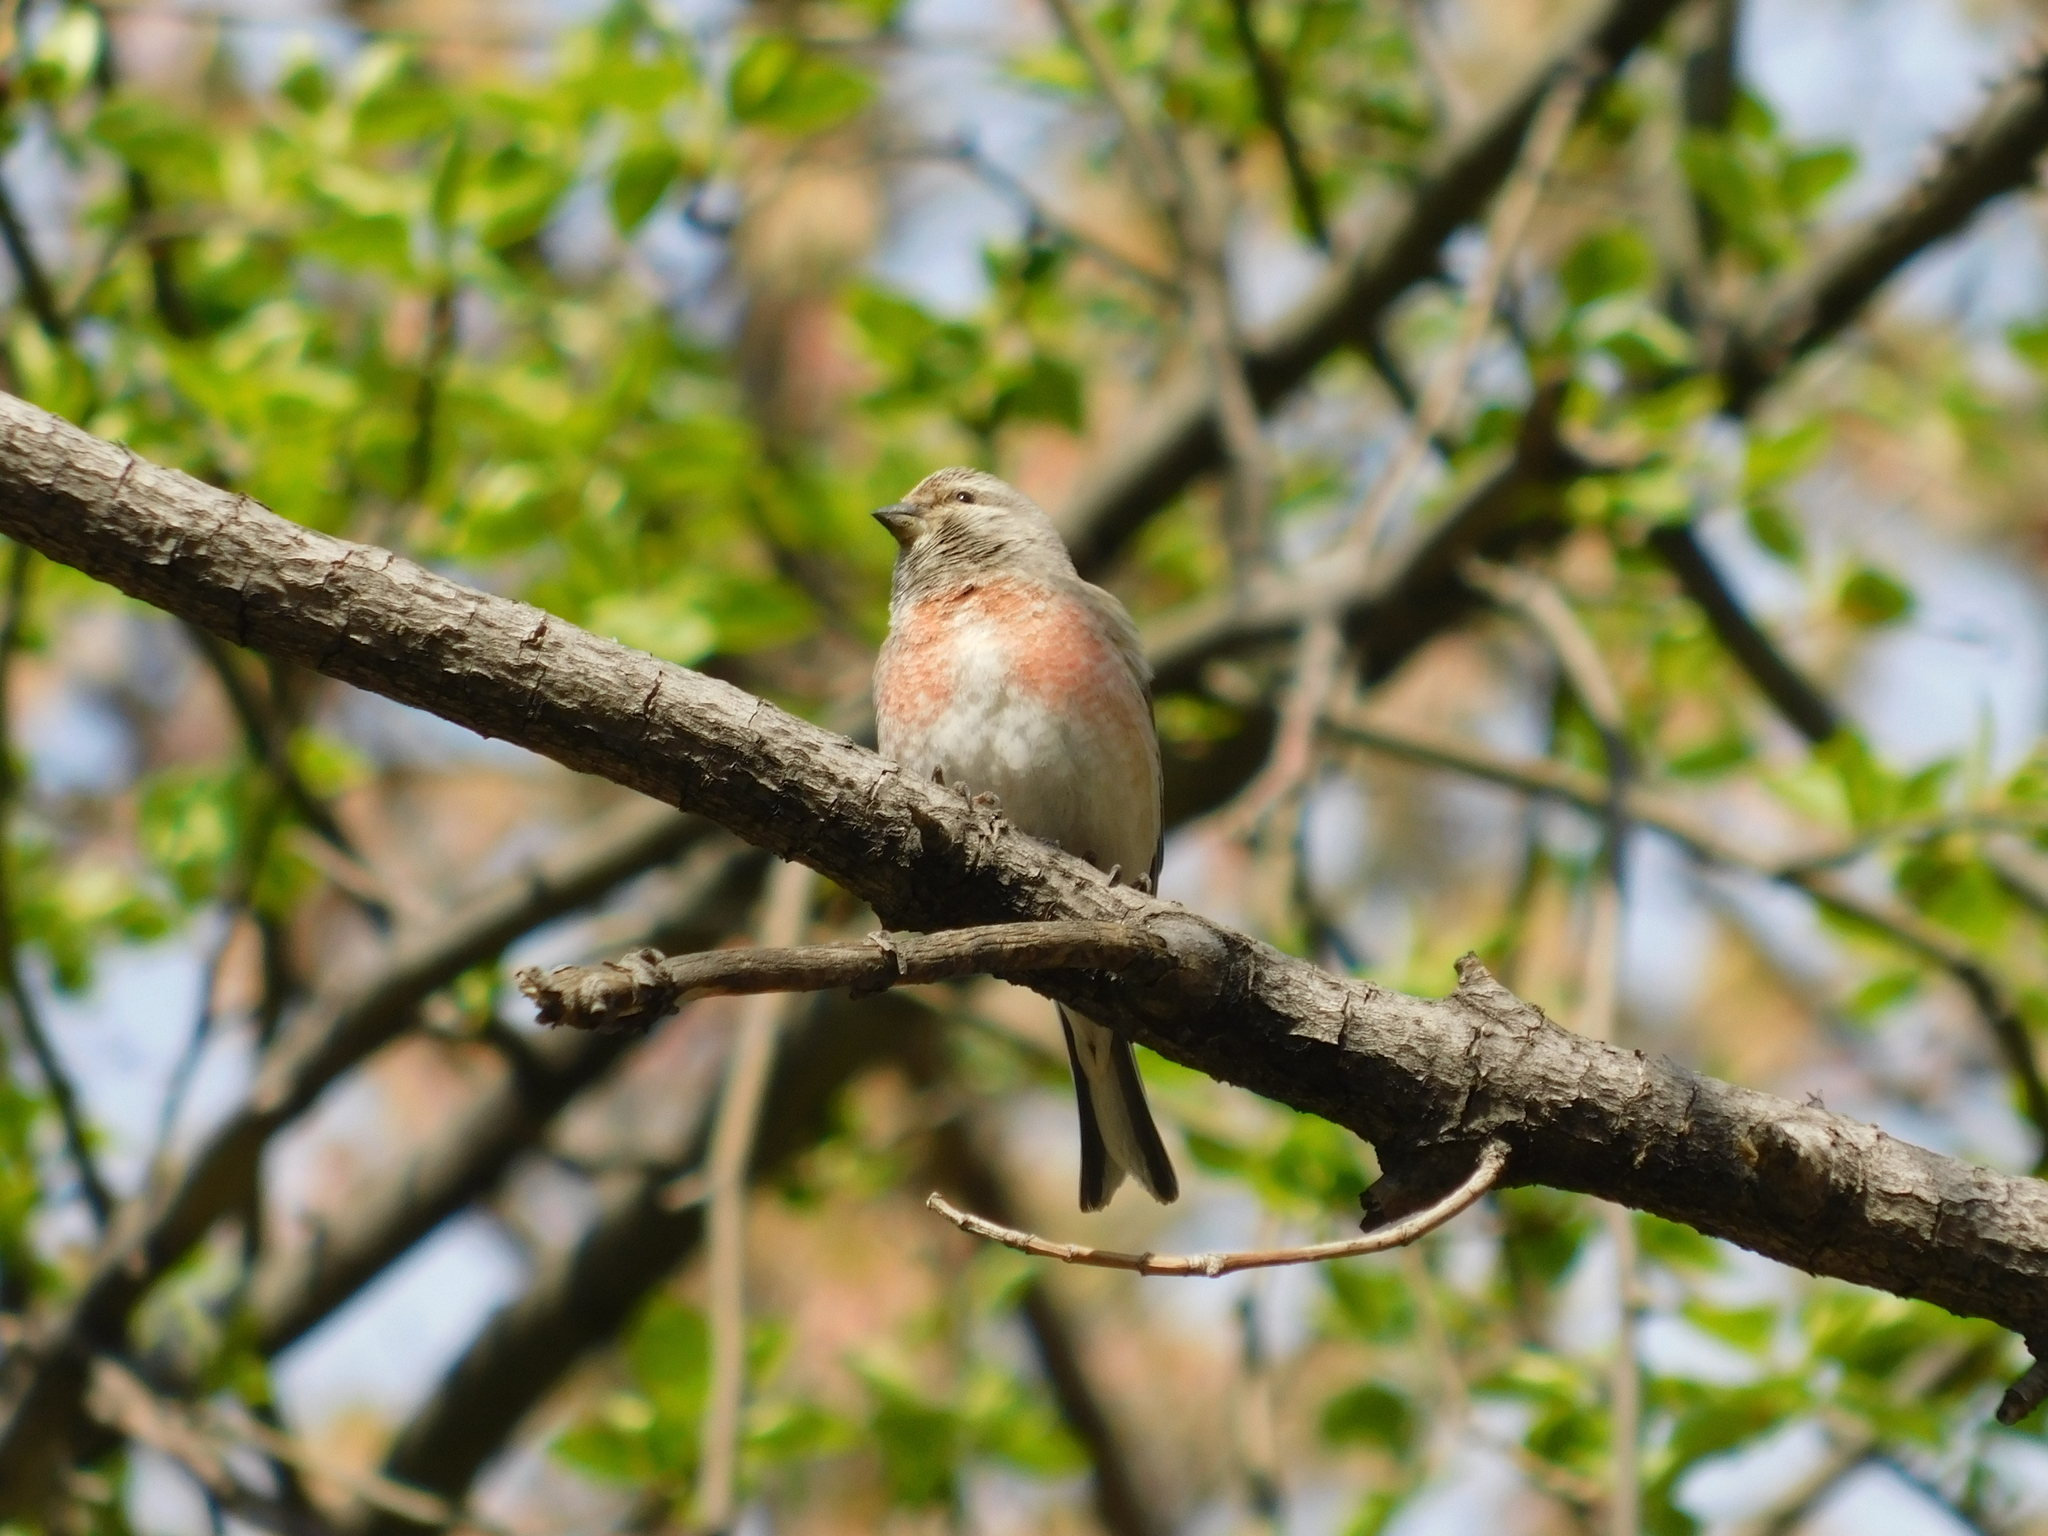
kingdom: Animalia
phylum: Chordata
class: Aves
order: Passeriformes
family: Fringillidae
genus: Linaria
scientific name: Linaria cannabina
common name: Common linnet
